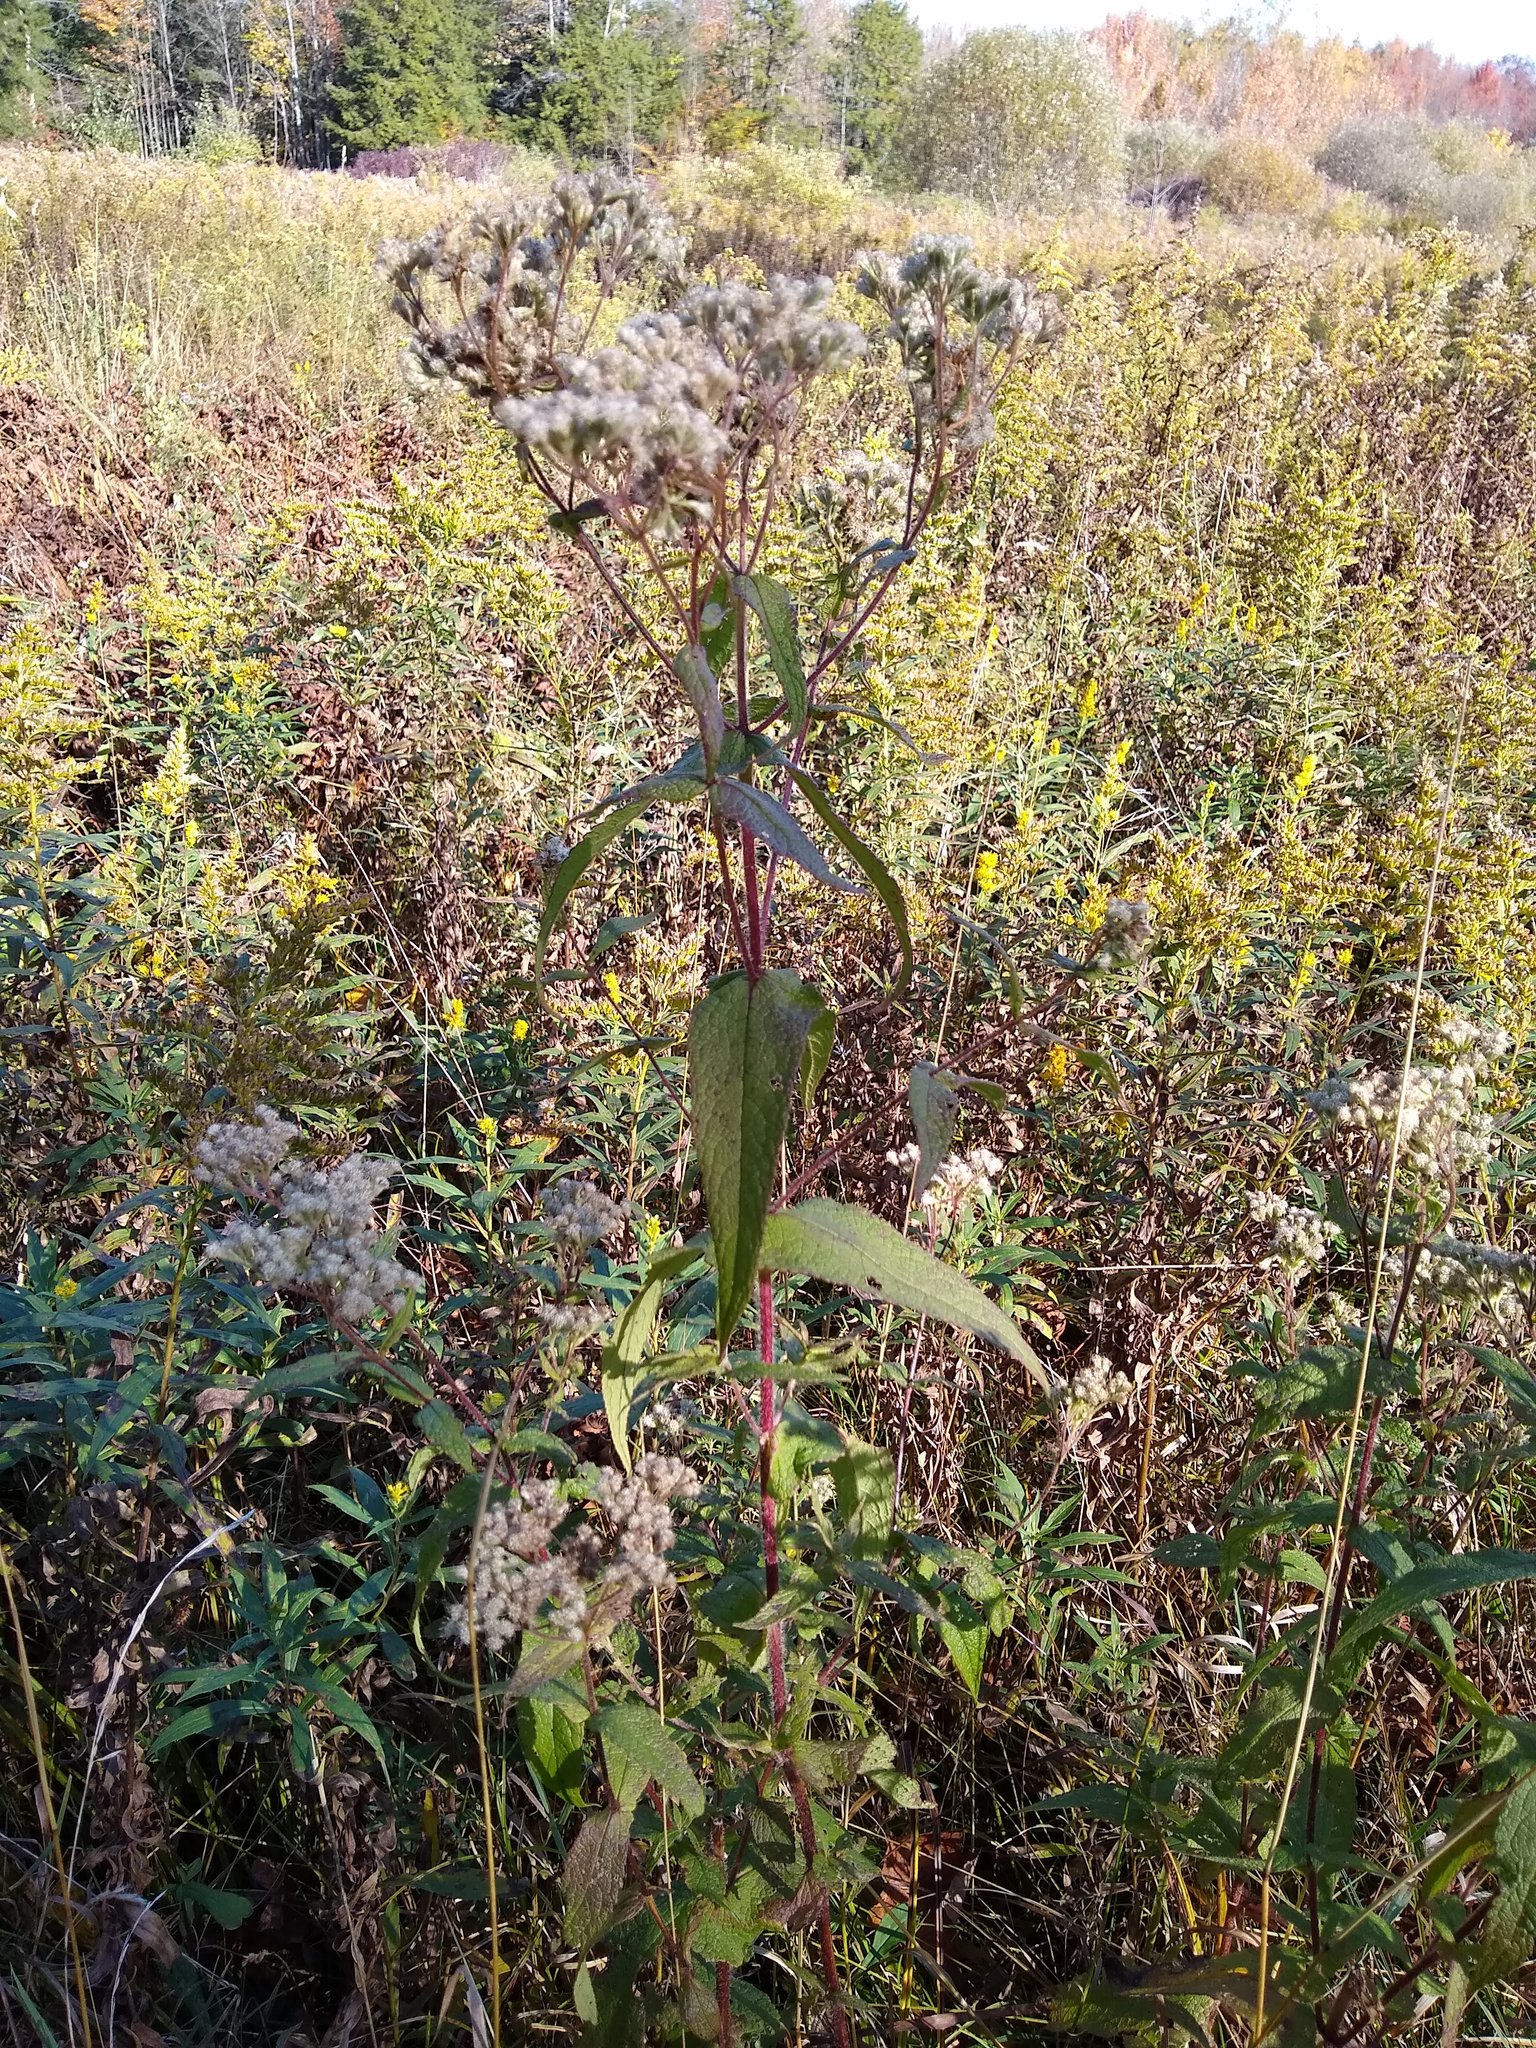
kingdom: Plantae
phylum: Tracheophyta
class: Magnoliopsida
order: Asterales
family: Asteraceae
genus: Eupatorium
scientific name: Eupatorium perfoliatum
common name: Boneset
